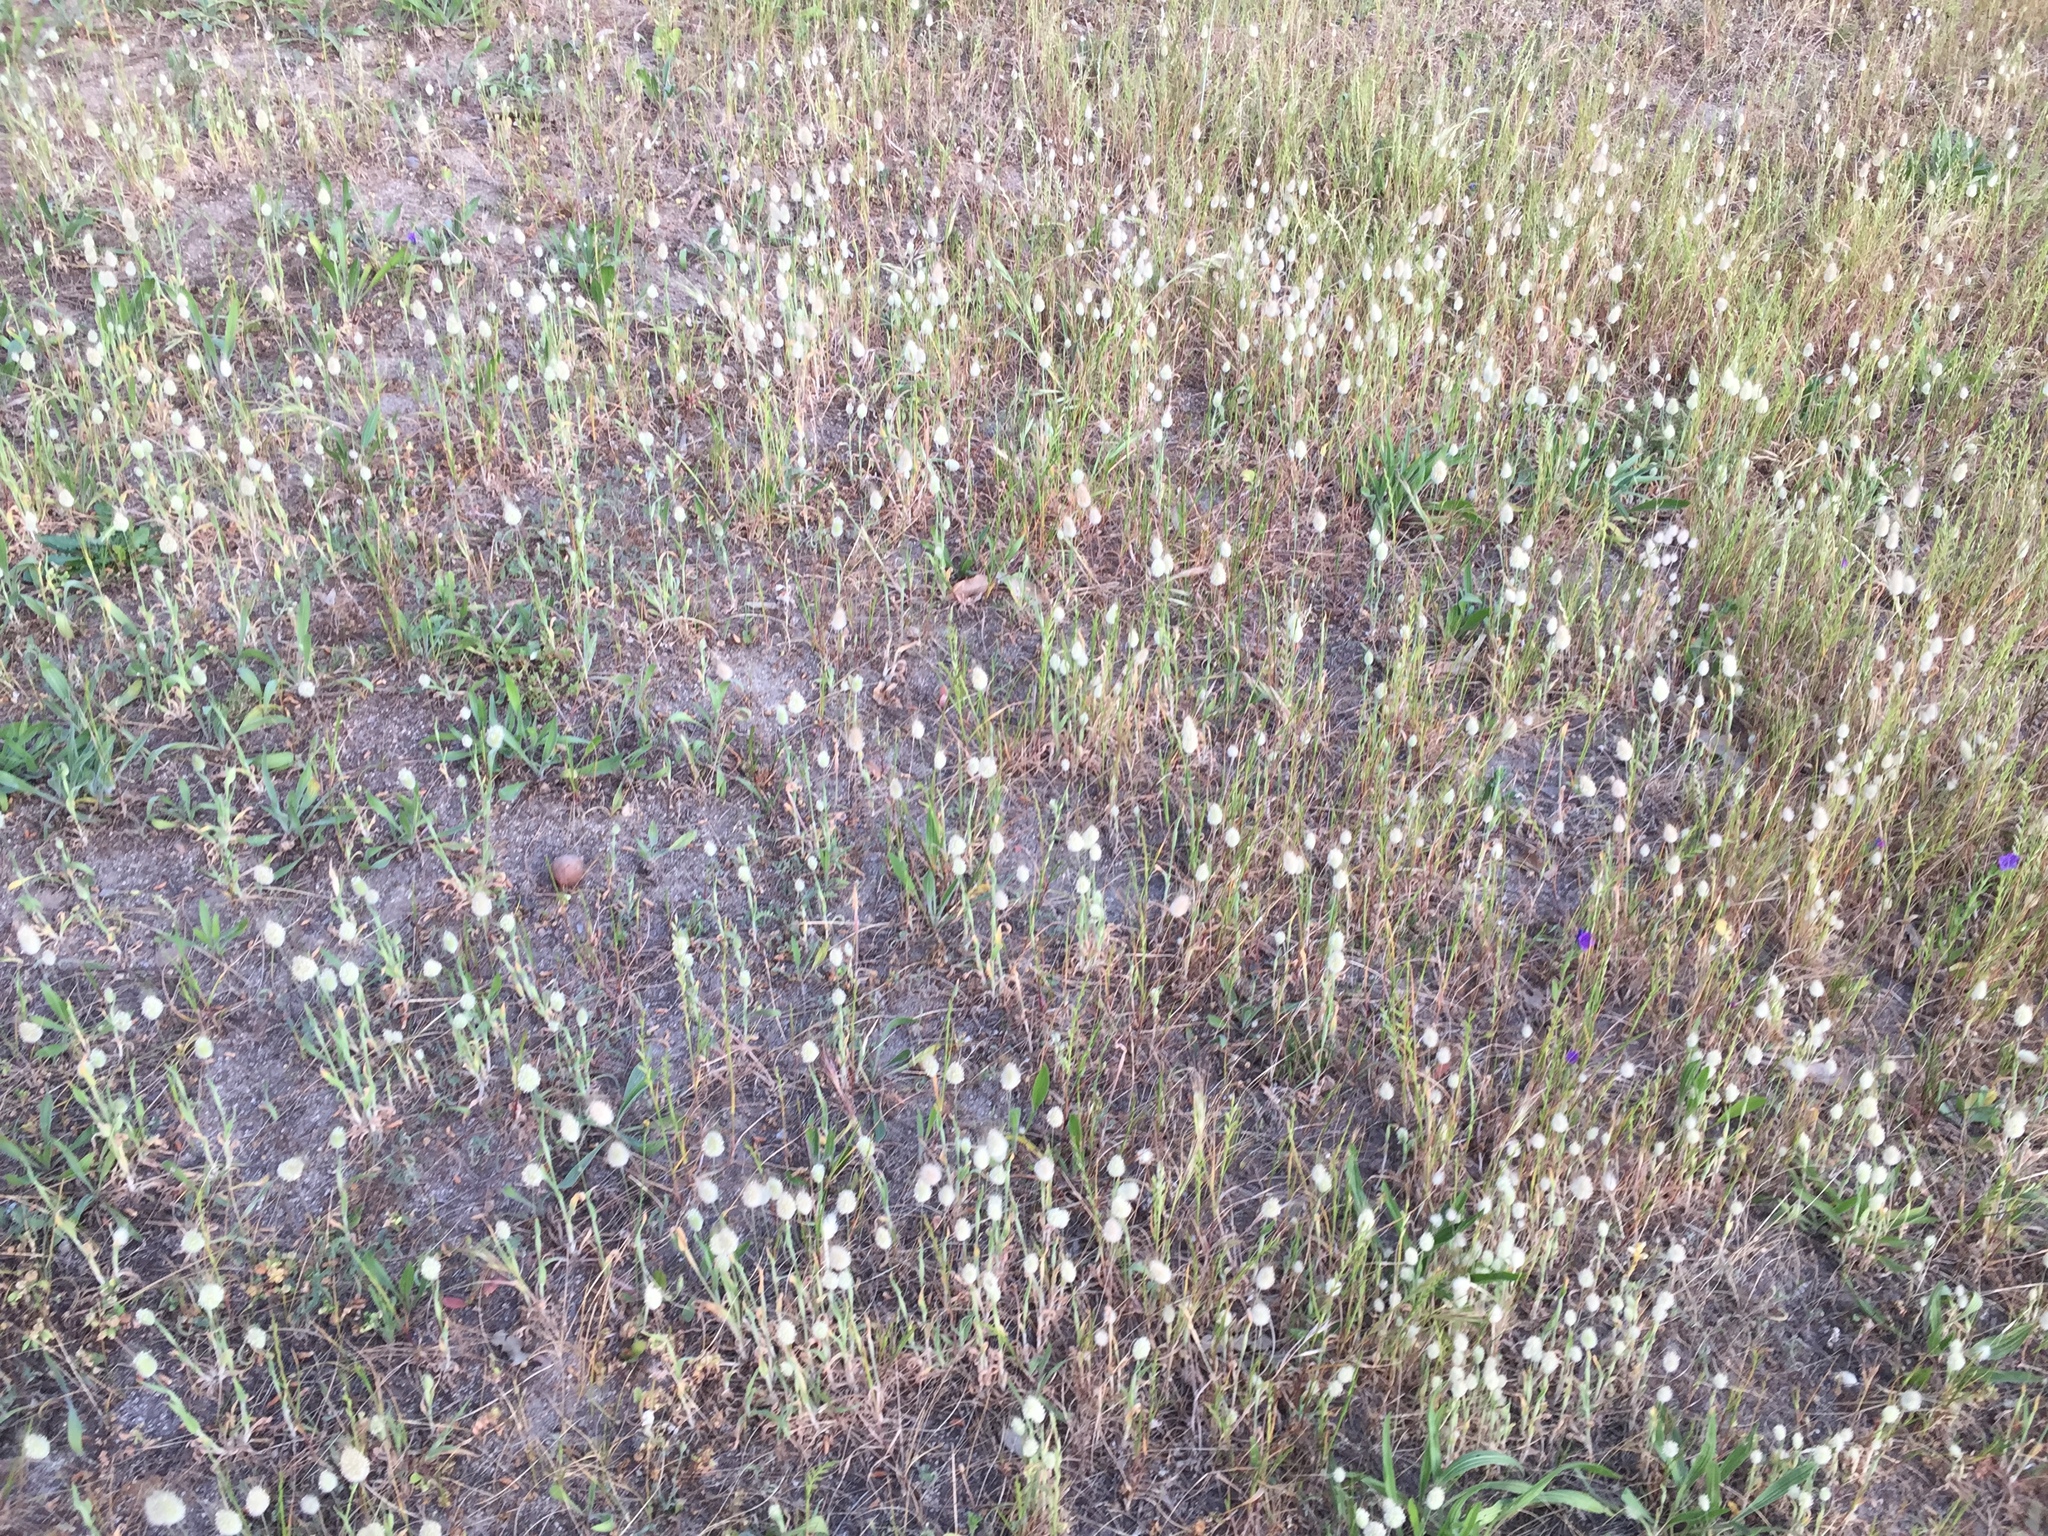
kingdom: Plantae
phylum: Tracheophyta
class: Liliopsida
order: Poales
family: Poaceae
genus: Lagurus
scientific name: Lagurus ovatus
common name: Hare's-tail
